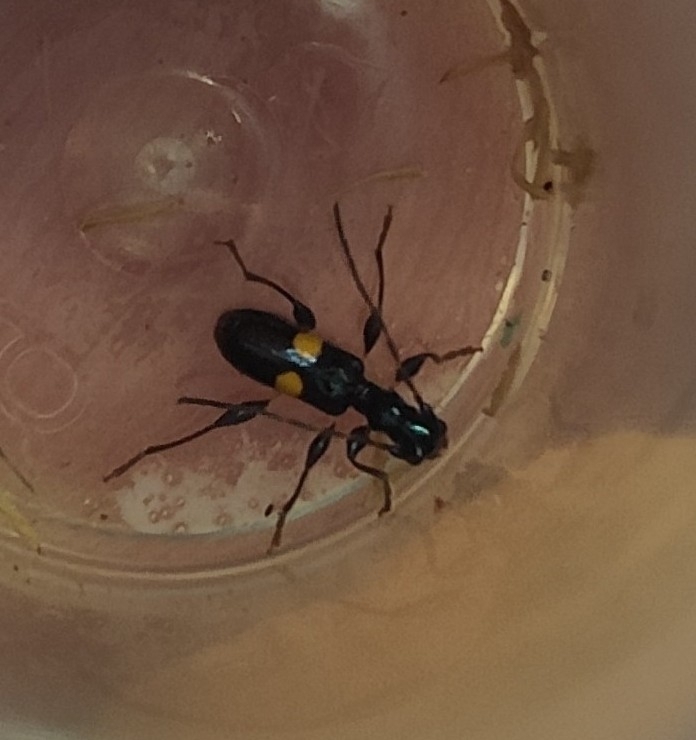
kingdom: Animalia
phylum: Arthropoda
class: Insecta
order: Coleoptera
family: Cerambycidae
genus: Zorion
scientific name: Zorion guttigerum
